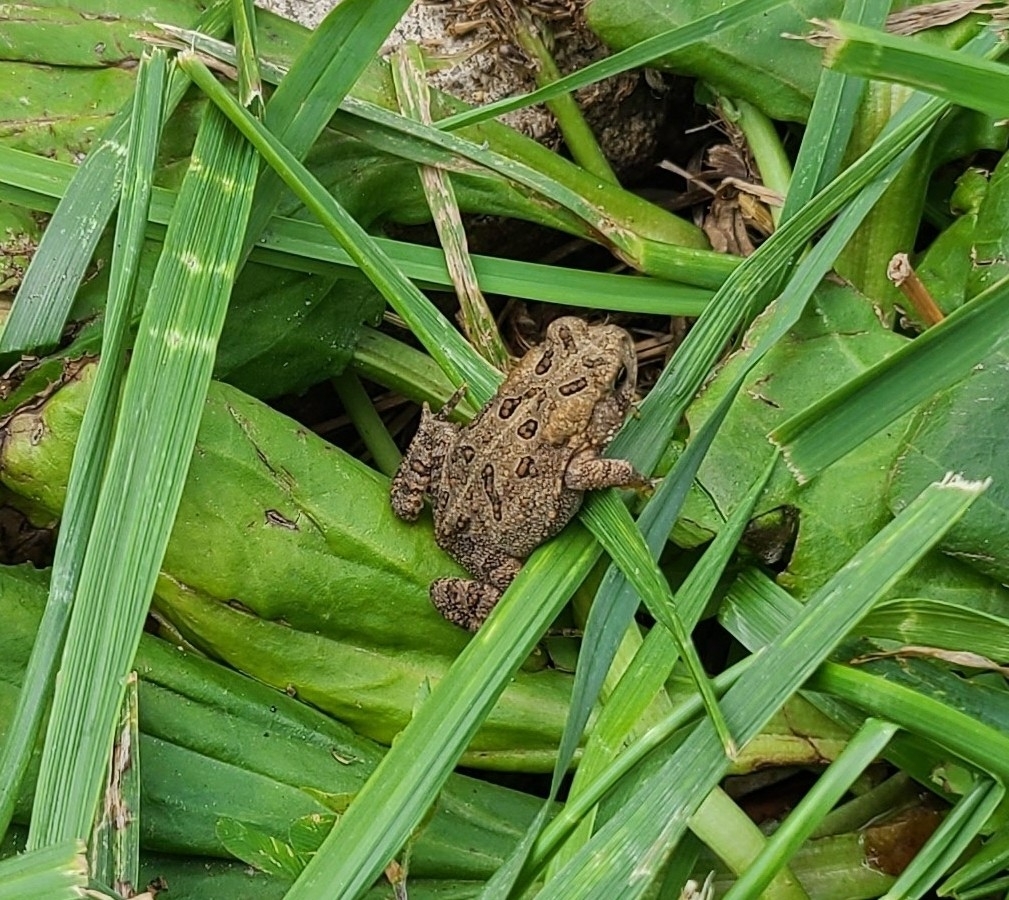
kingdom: Animalia
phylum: Chordata
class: Amphibia
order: Anura
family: Bufonidae
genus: Anaxyrus
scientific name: Anaxyrus fowleri
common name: Fowler's toad
